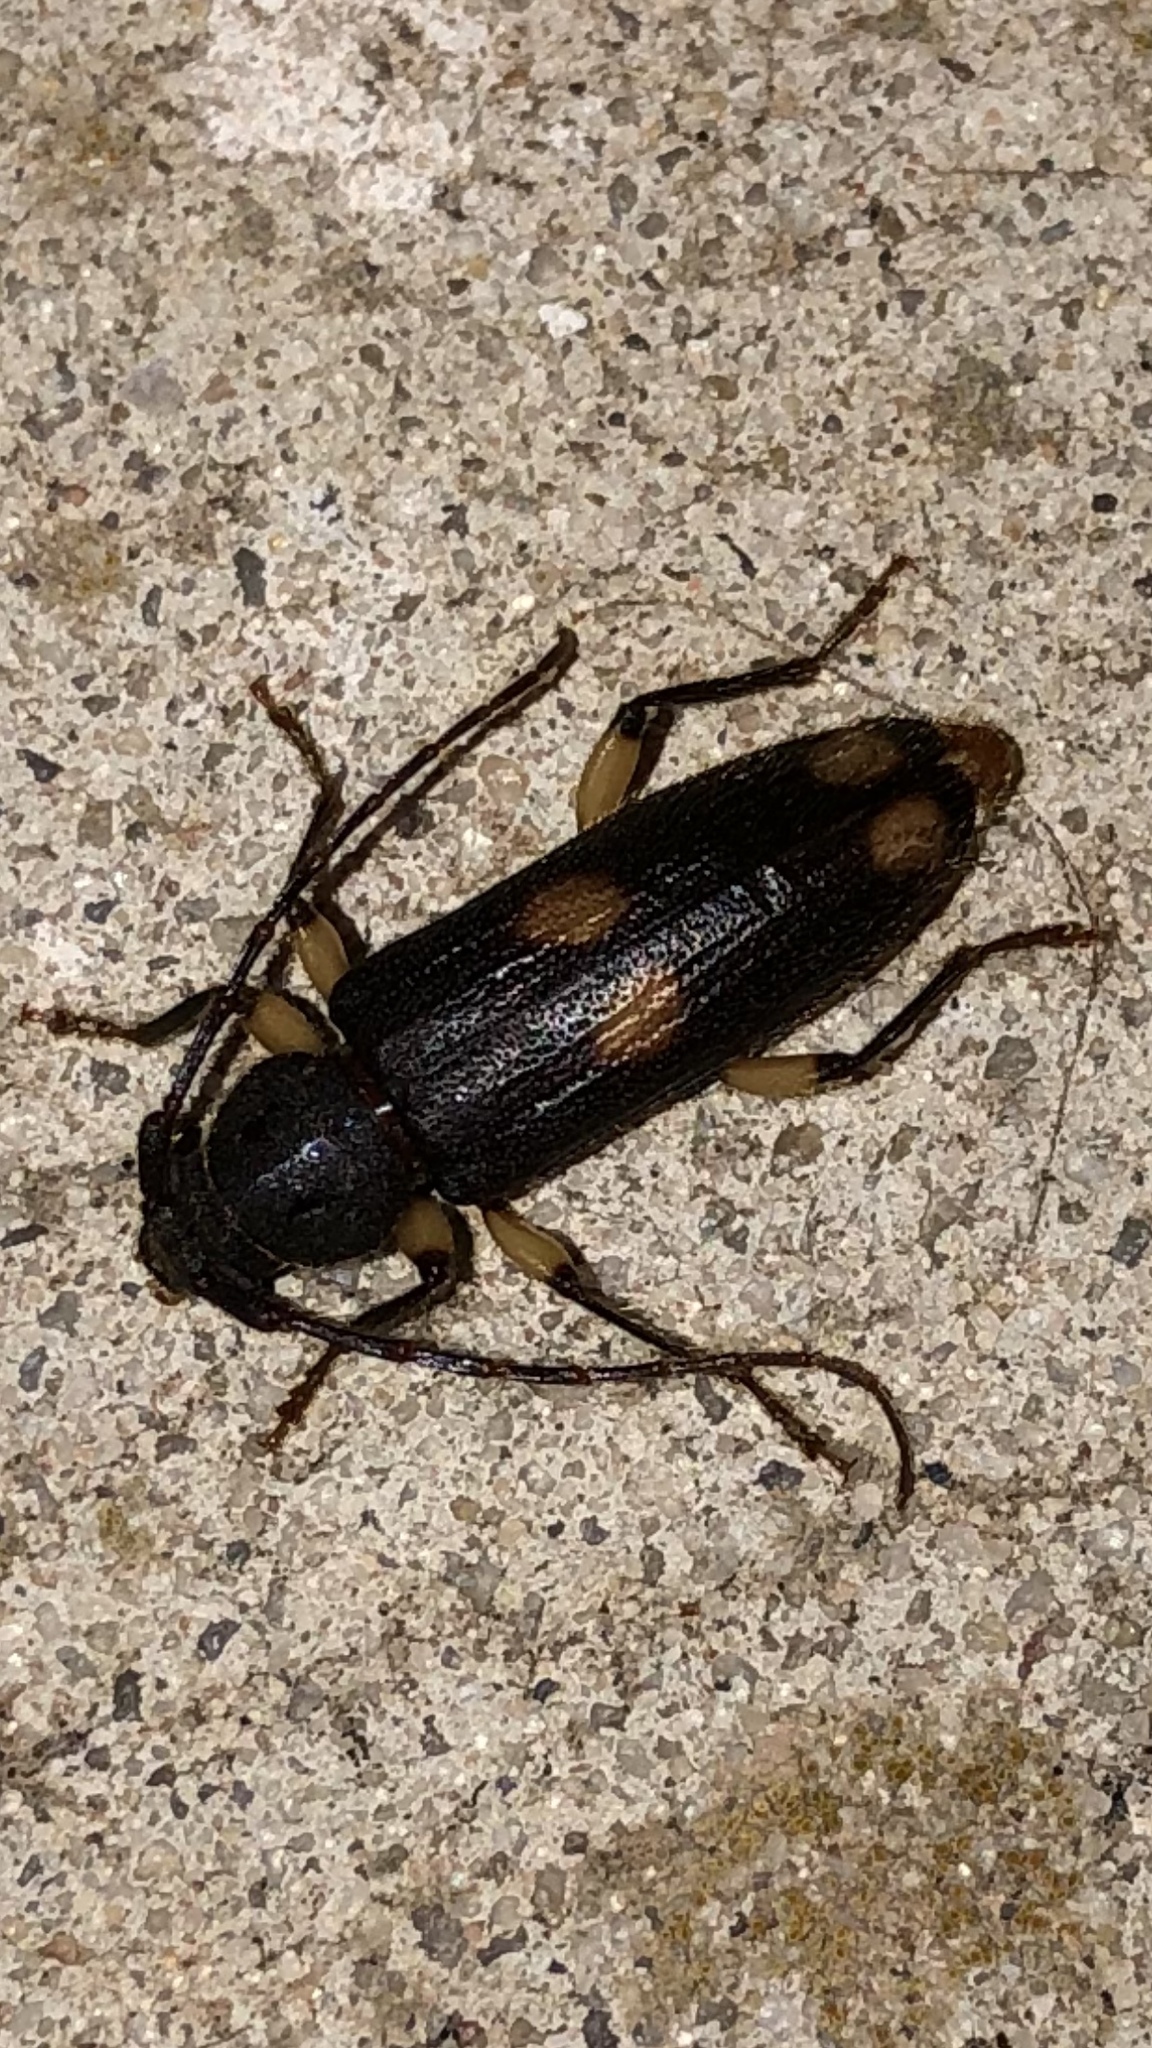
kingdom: Animalia
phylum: Arthropoda
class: Insecta
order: Coleoptera
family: Cerambycidae
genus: Tylonotus
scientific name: Tylonotus bimaculatus
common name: Ash and privet borer
